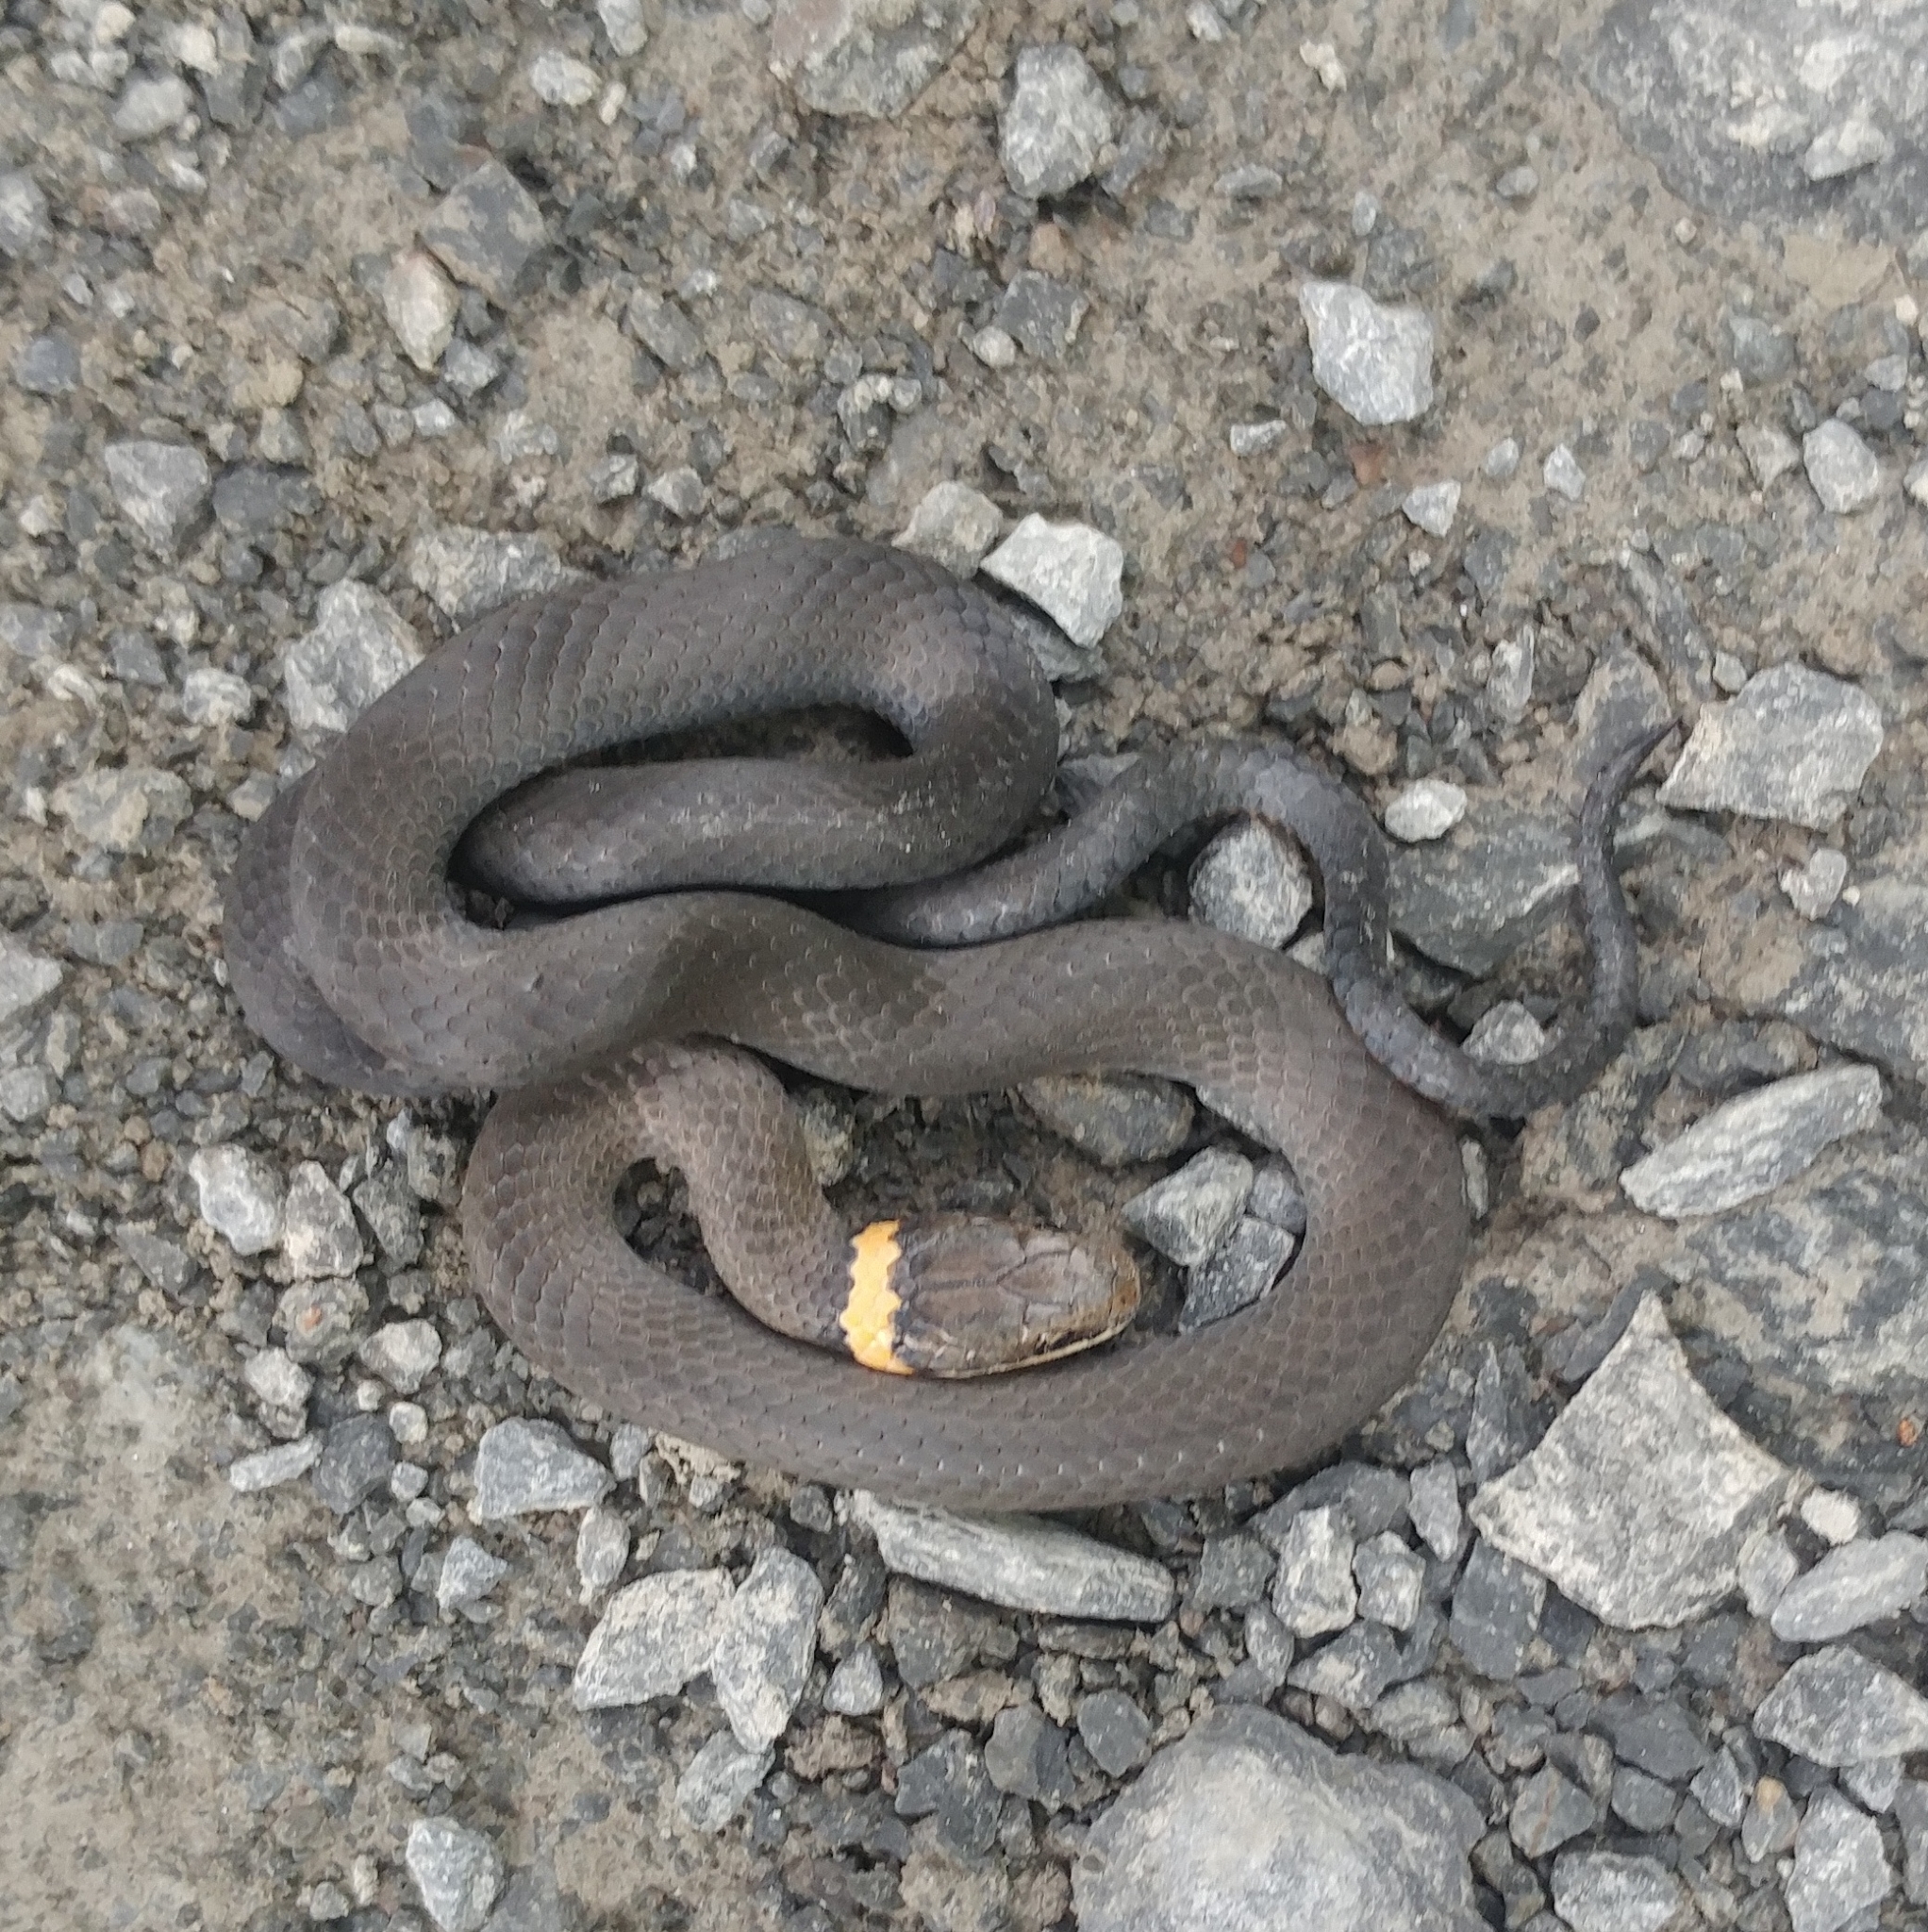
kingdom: Animalia
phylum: Chordata
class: Squamata
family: Colubridae
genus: Diadophis
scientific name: Diadophis punctatus
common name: Ringneck snake
